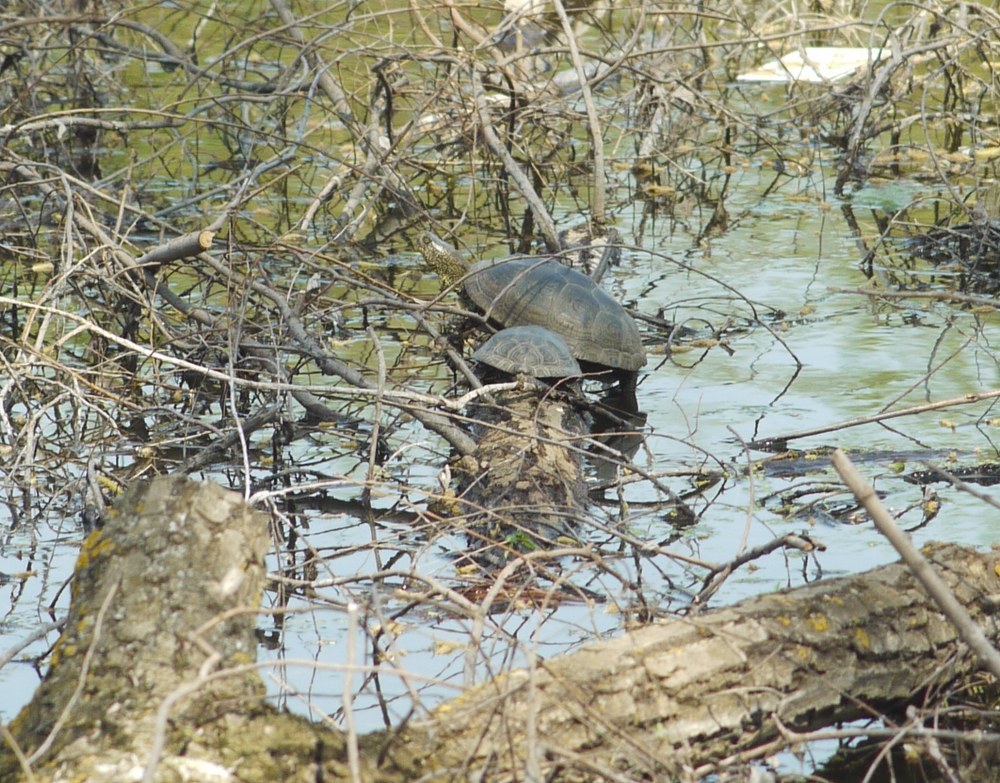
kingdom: Animalia
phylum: Chordata
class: Testudines
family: Emydidae
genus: Emys
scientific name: Emys orbicularis
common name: European pond turtle
